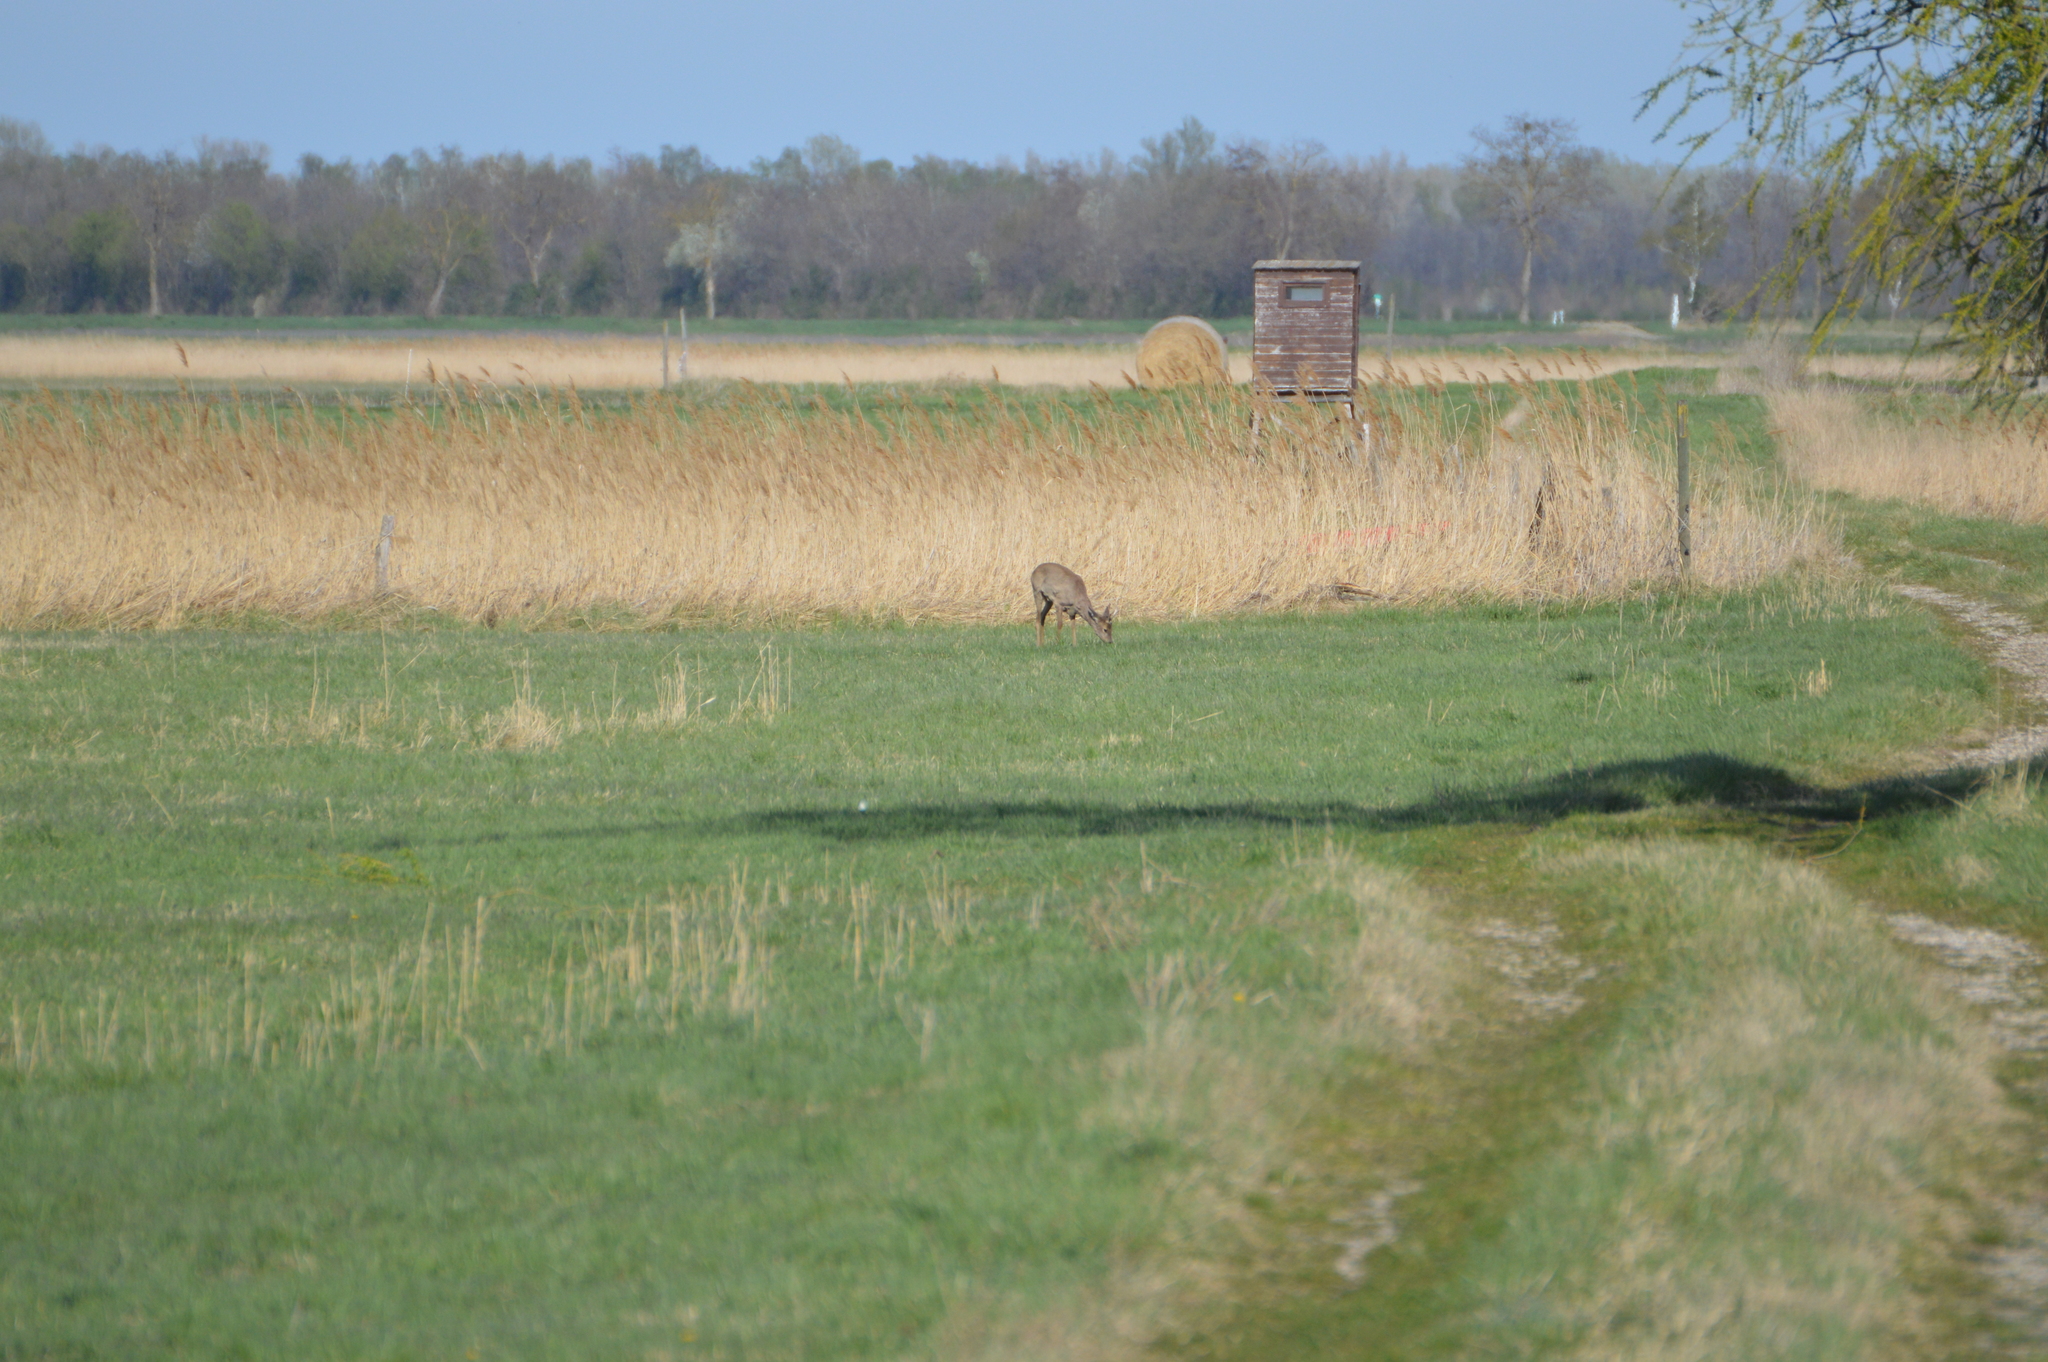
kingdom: Animalia
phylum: Chordata
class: Mammalia
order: Artiodactyla
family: Cervidae
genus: Capreolus
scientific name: Capreolus capreolus
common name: Western roe deer
